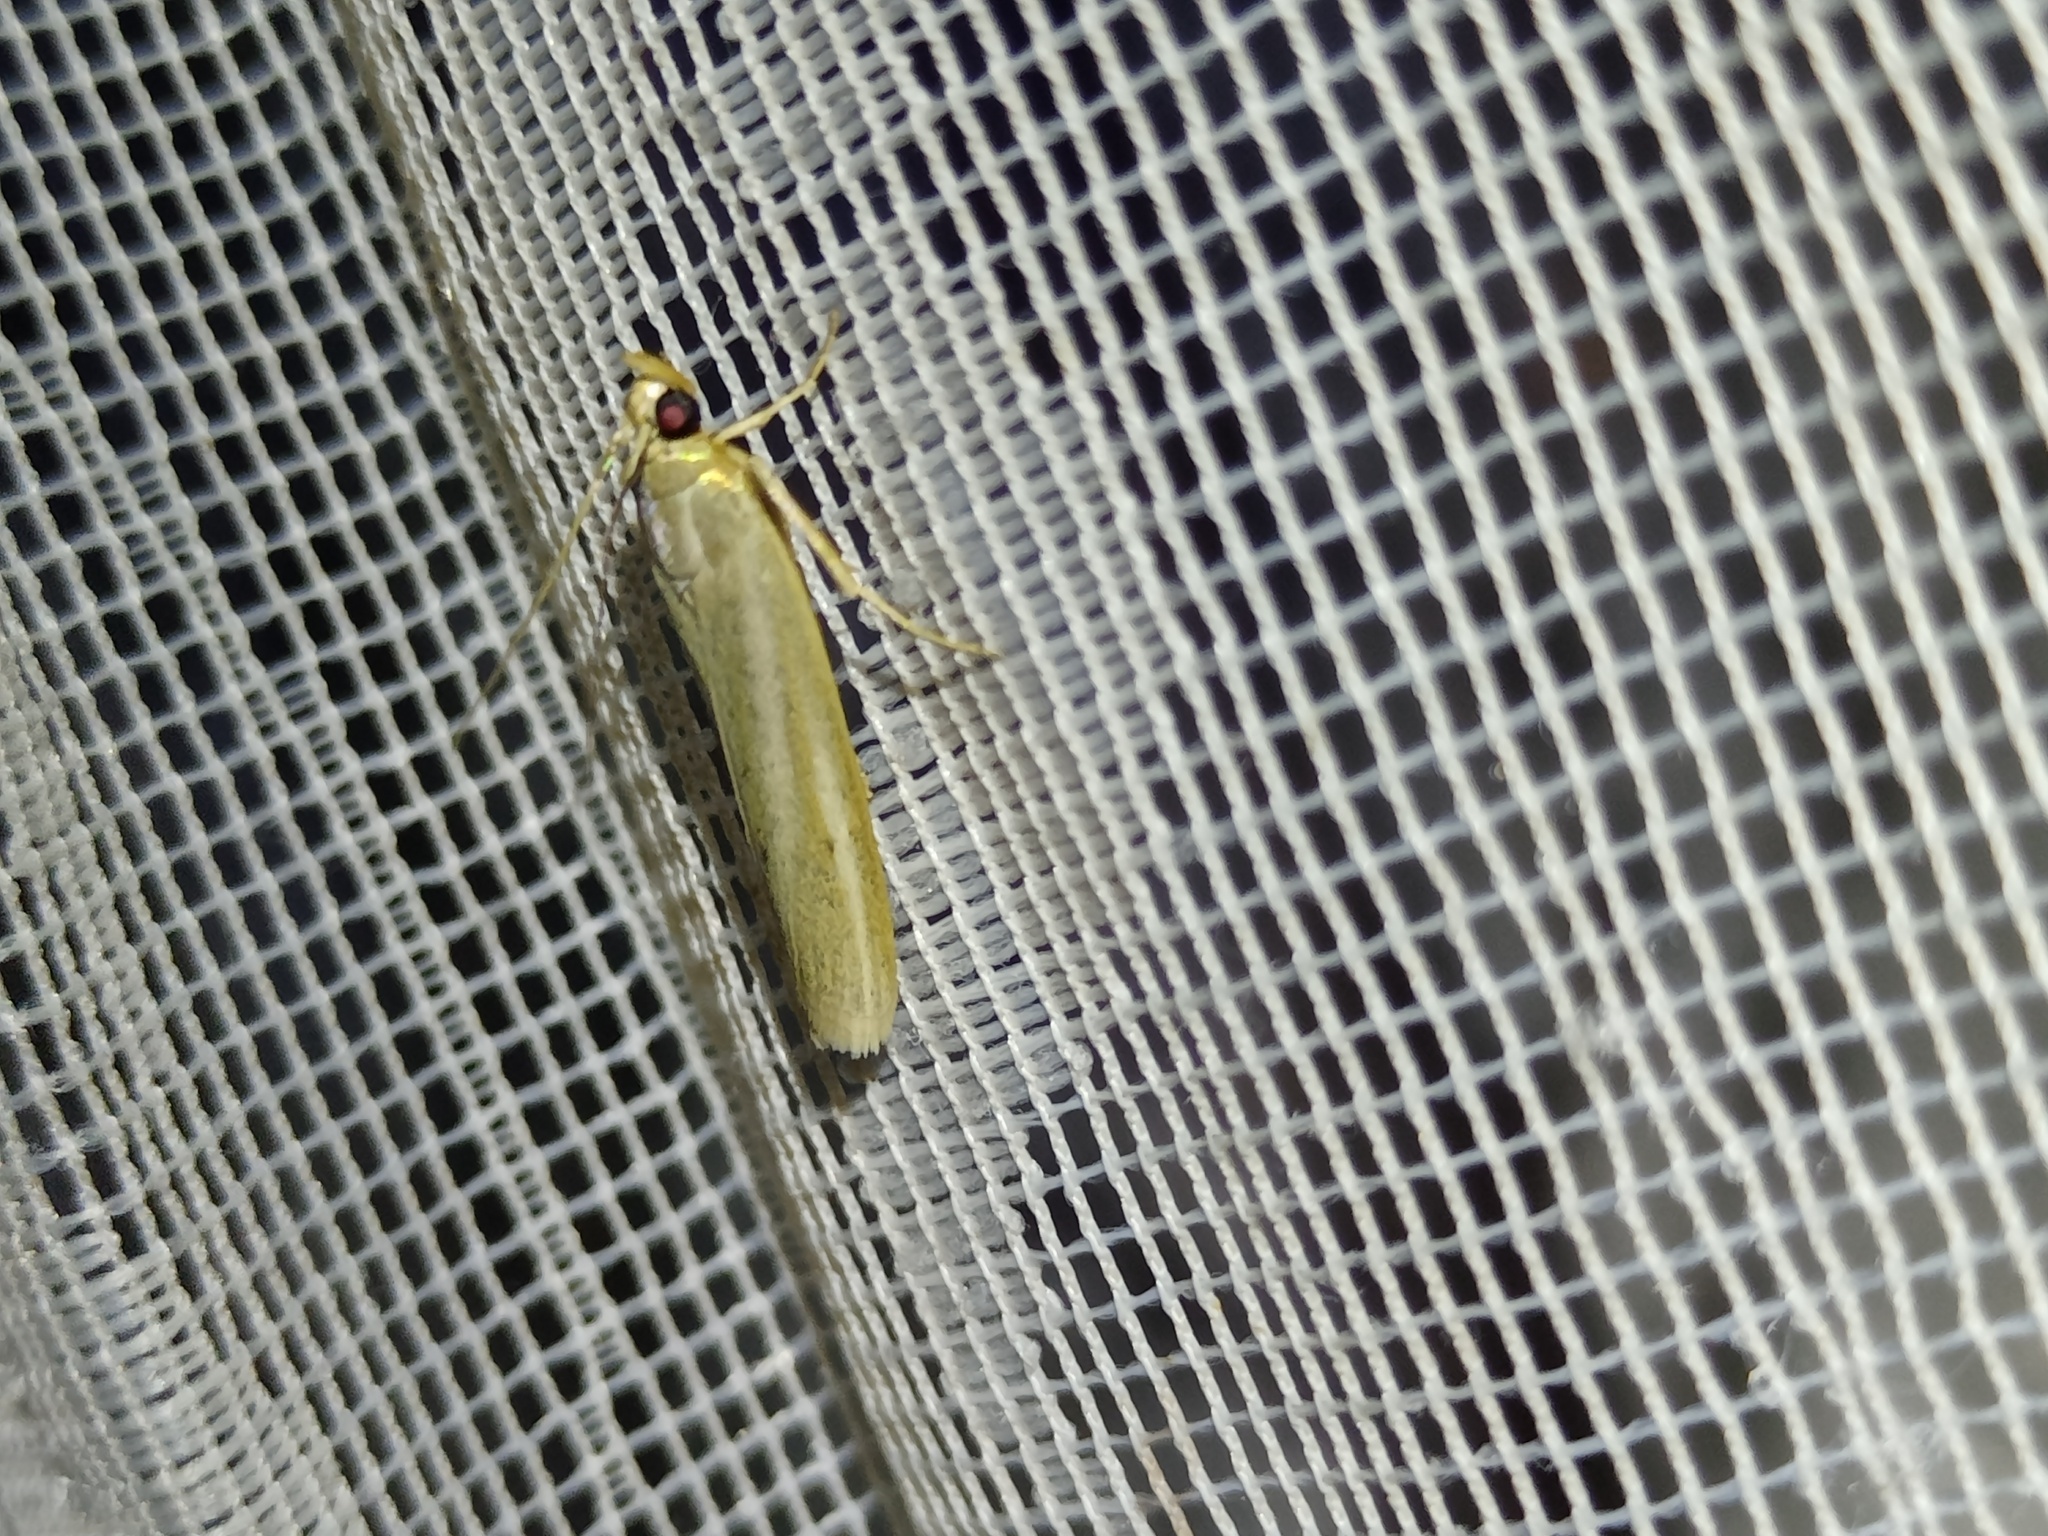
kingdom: Animalia
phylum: Arthropoda
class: Insecta
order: Lepidoptera
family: Pyralidae
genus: Selagia
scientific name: Selagia argyrella
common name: Silvery knot-horn
